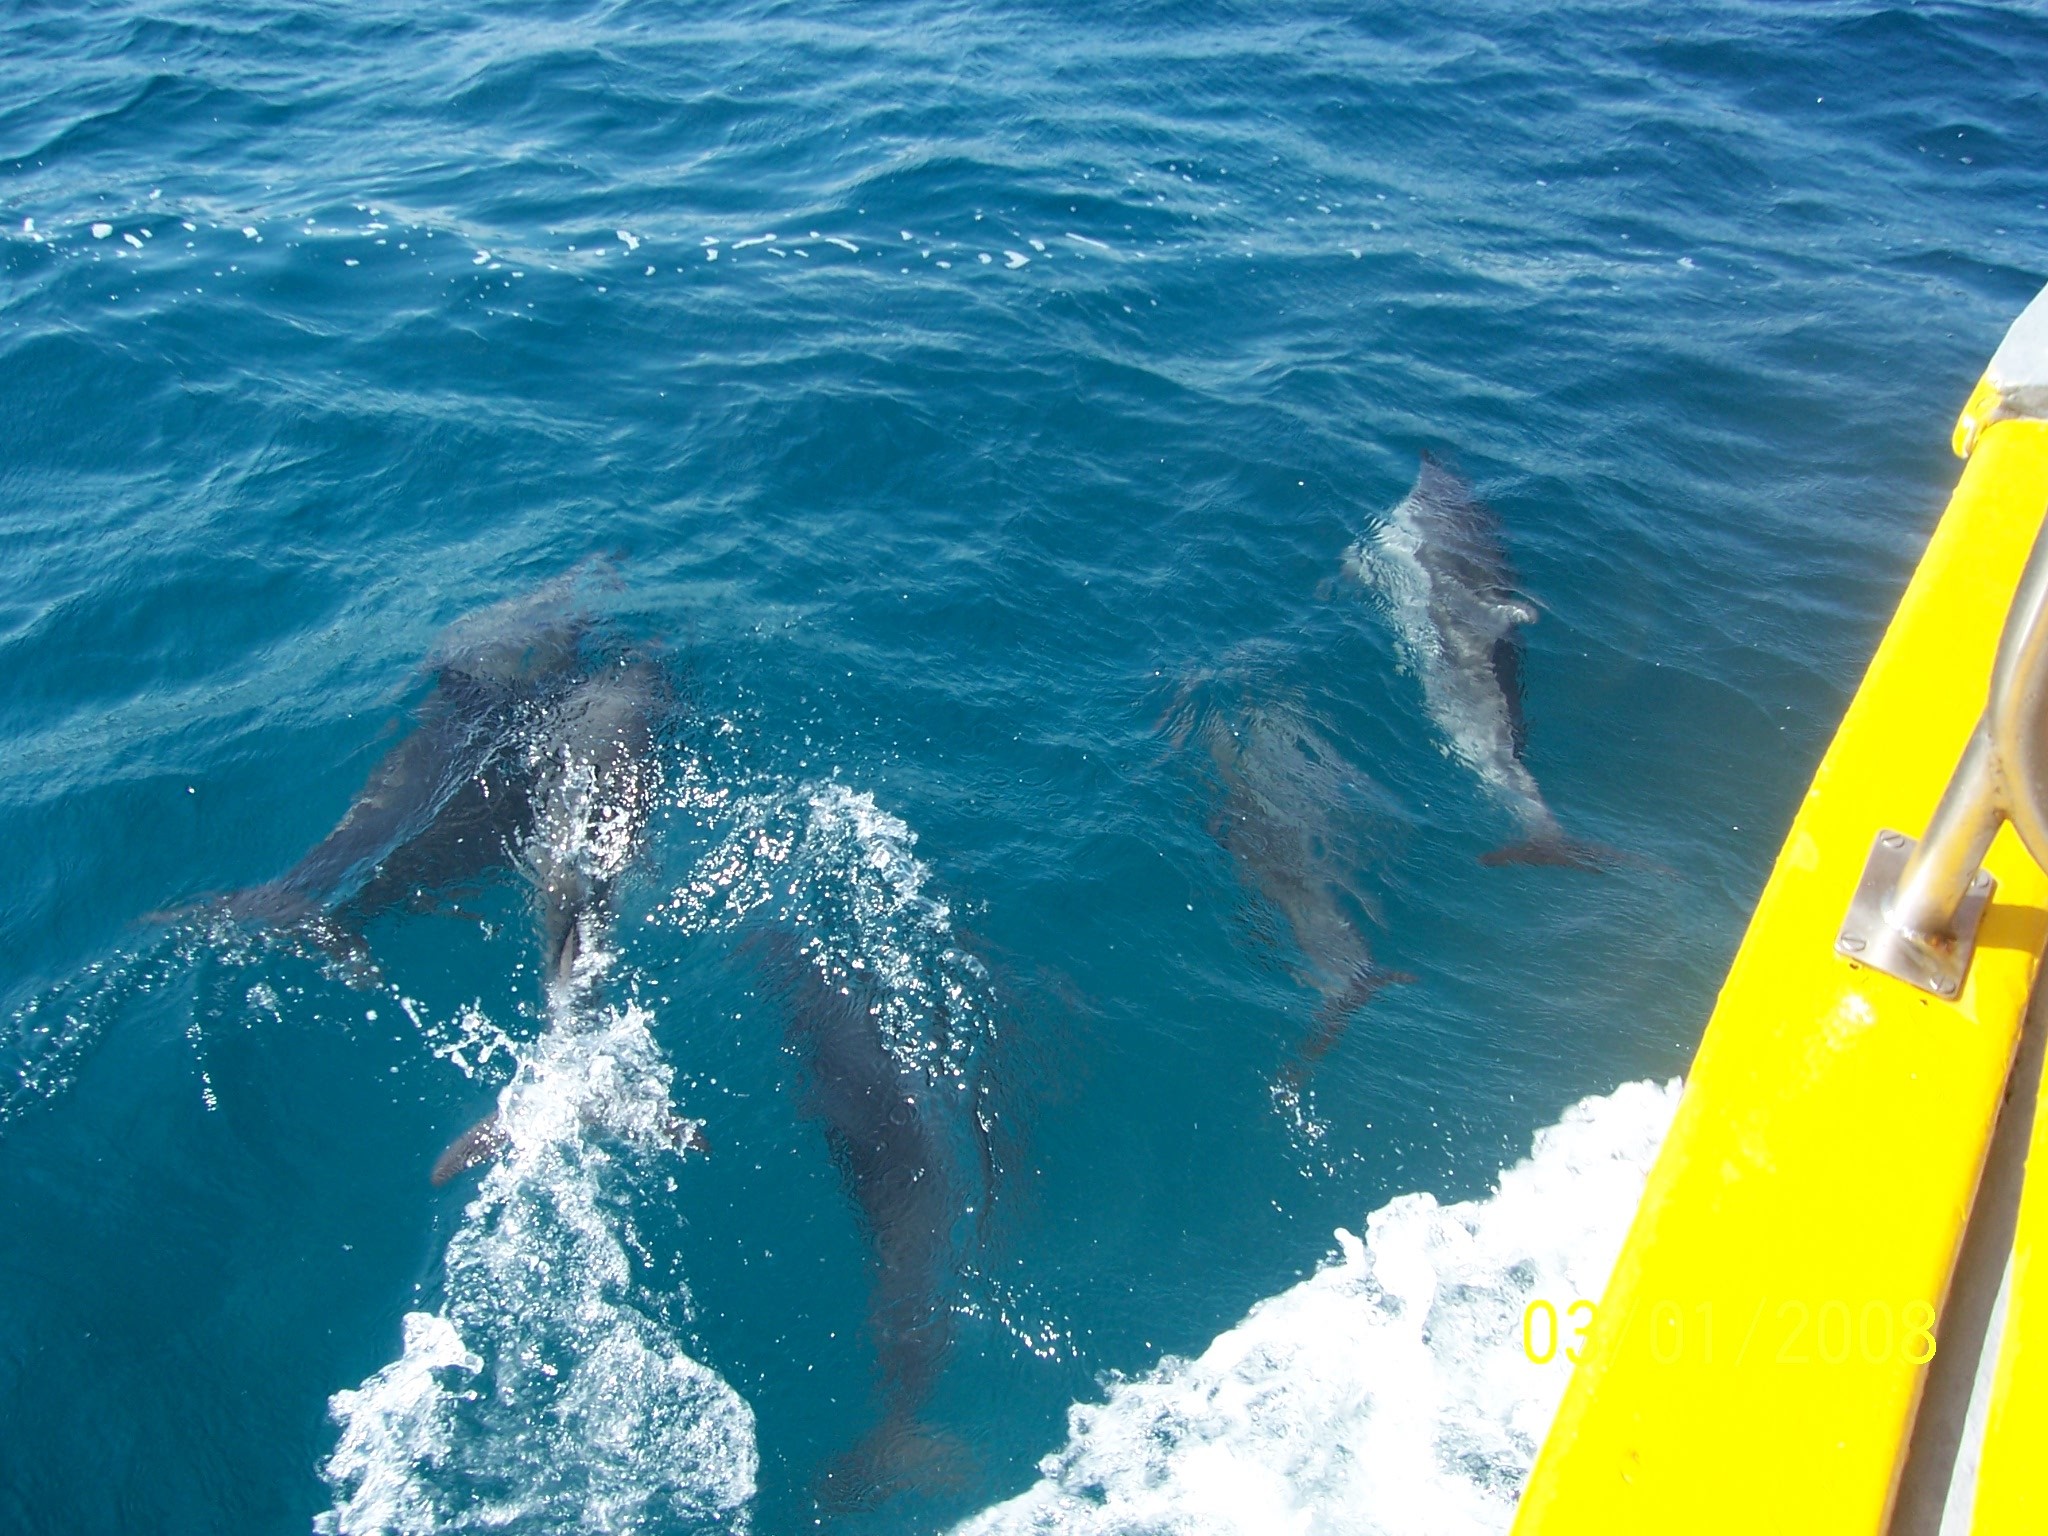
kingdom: Animalia
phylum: Chordata
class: Mammalia
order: Cetacea
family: Delphinidae
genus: Stenella
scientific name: Stenella longirostris
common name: Spinner dolphin
